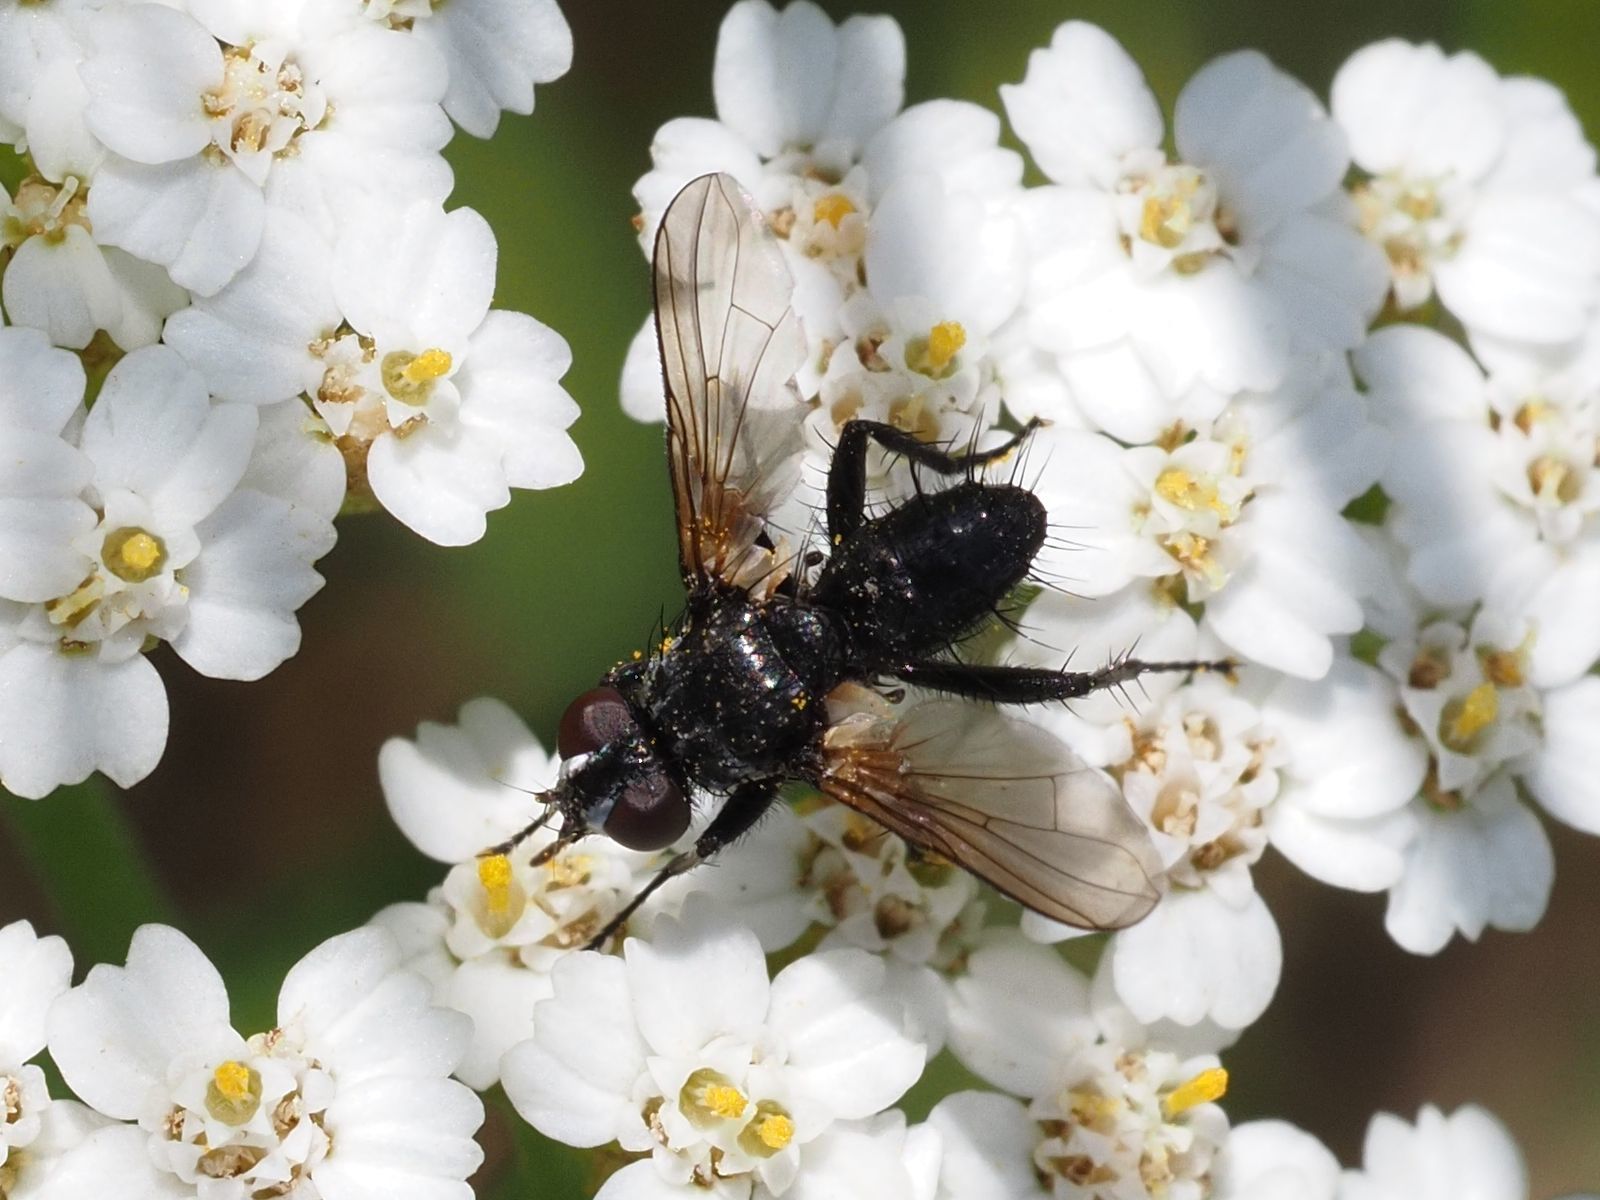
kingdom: Animalia
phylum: Arthropoda
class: Insecta
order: Diptera
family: Tachinidae
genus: Phania
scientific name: Phania funesta
